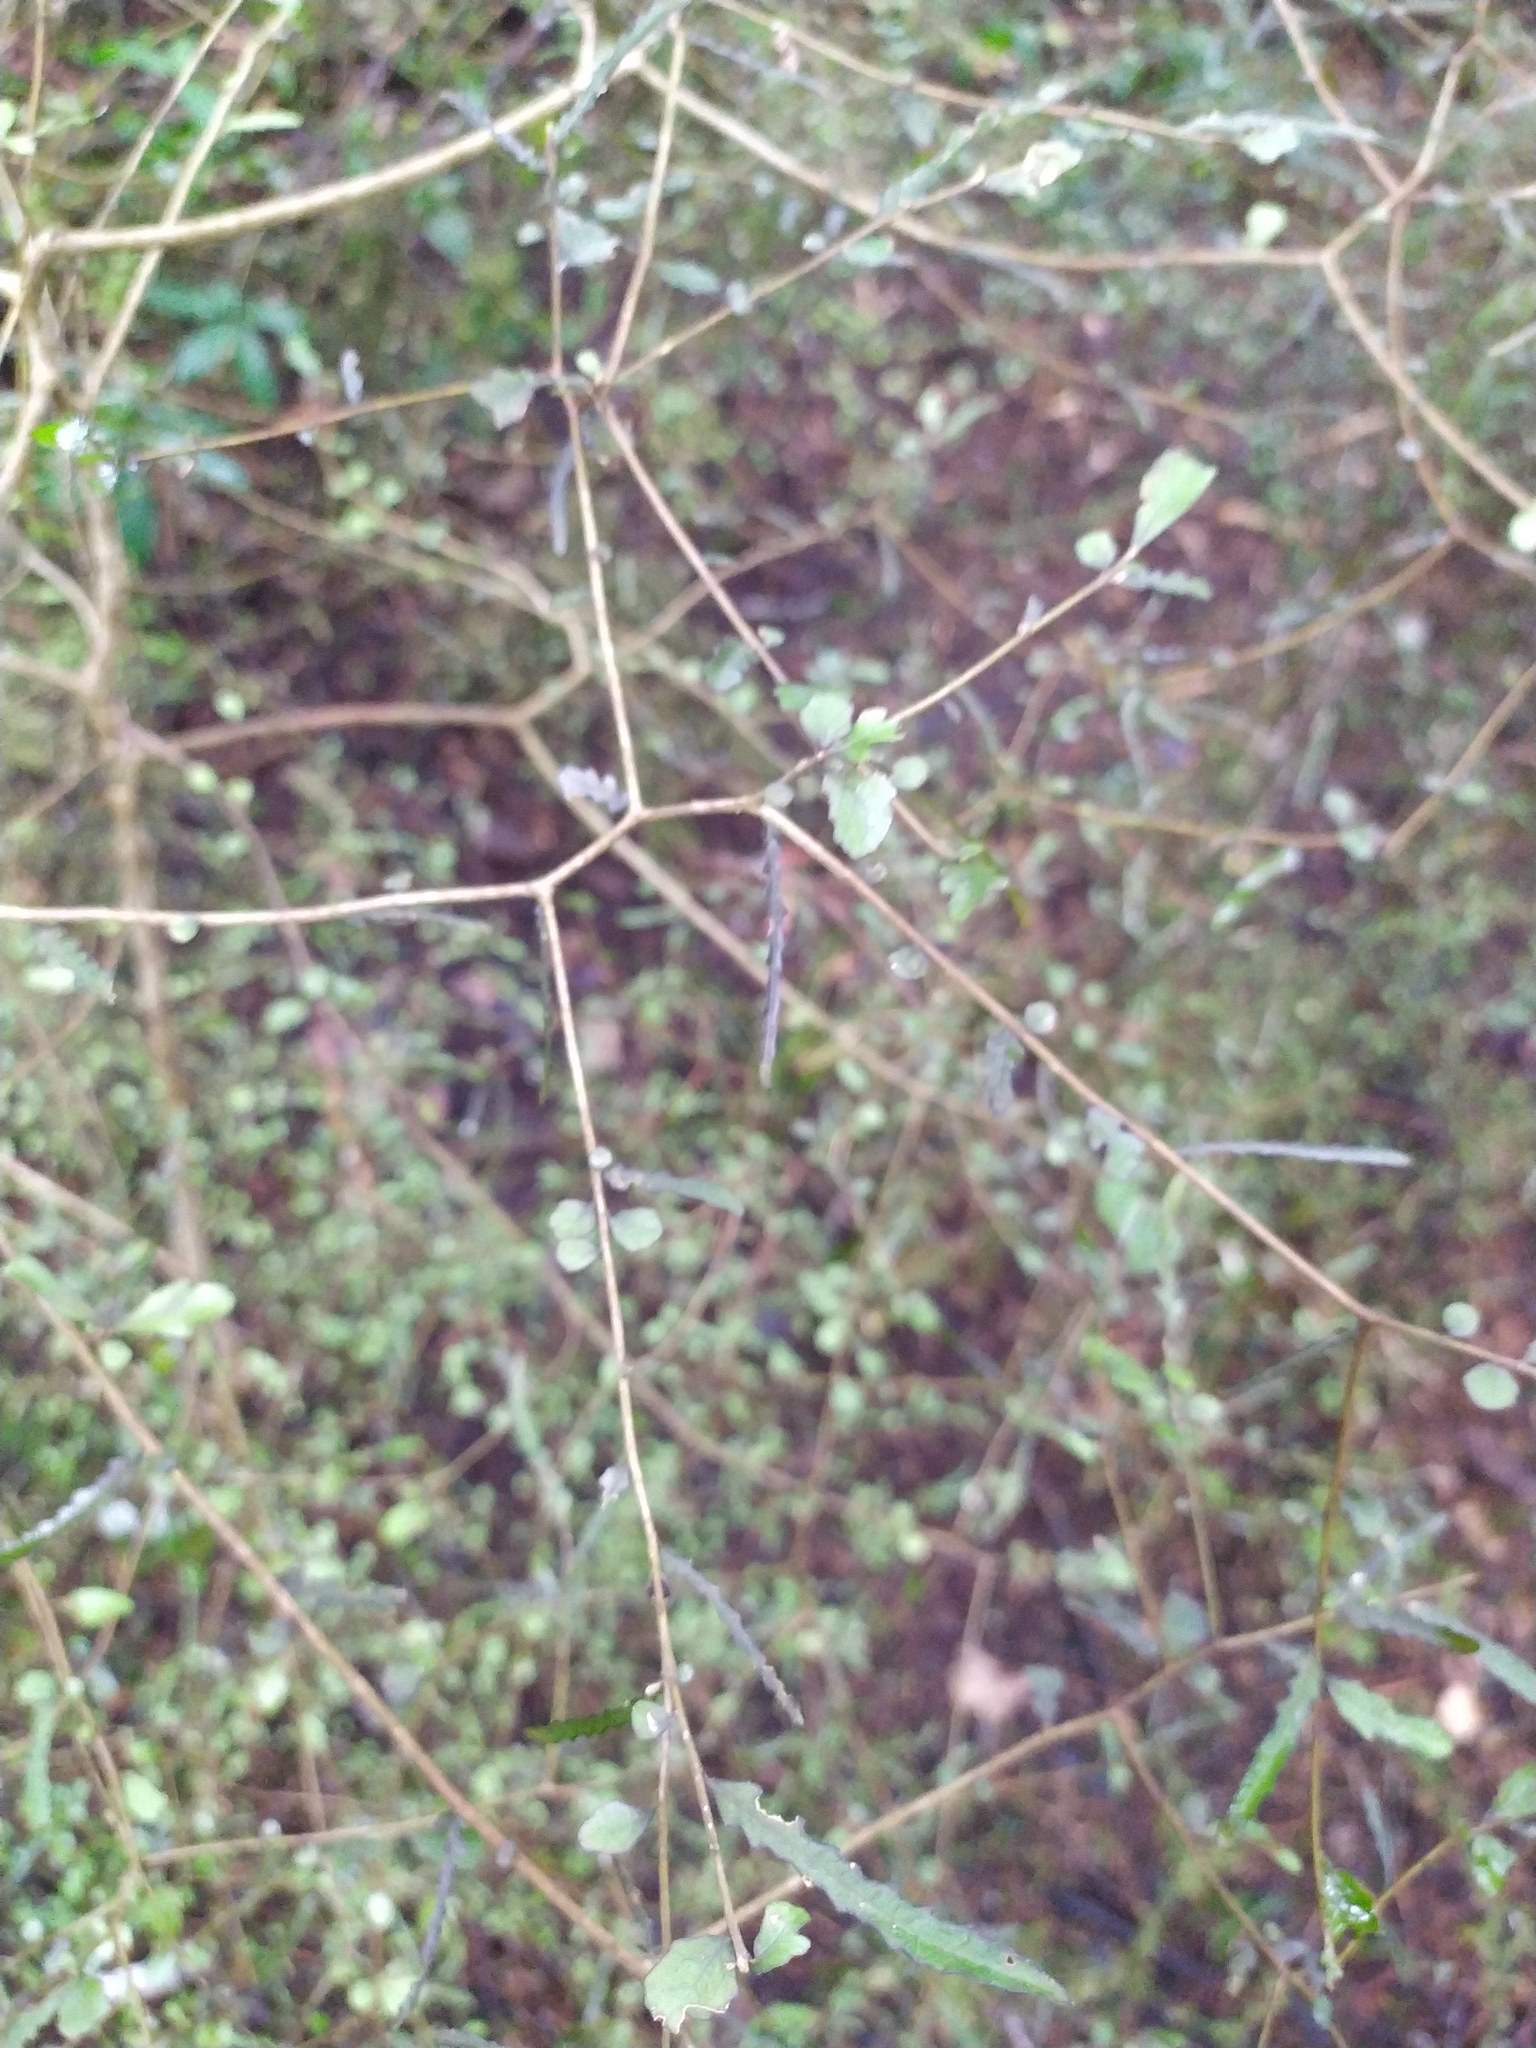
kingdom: Plantae
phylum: Tracheophyta
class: Magnoliopsida
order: Oxalidales
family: Elaeocarpaceae
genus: Elaeocarpus
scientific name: Elaeocarpus hookerianus
